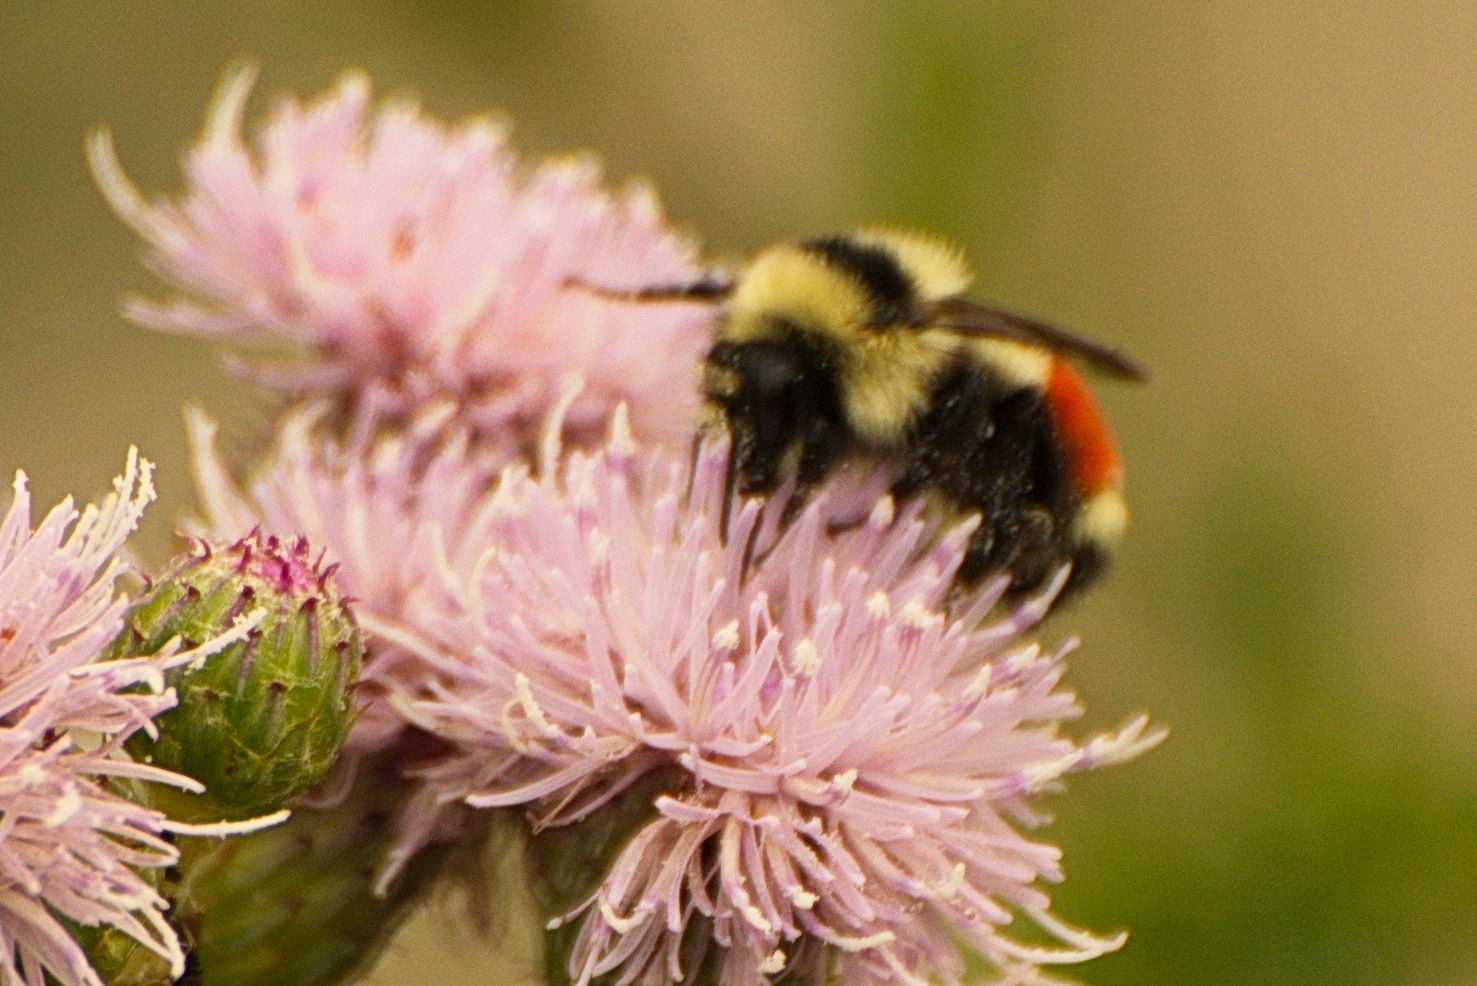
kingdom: Animalia
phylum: Arthropoda
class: Insecta
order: Hymenoptera
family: Apidae
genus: Bombus
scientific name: Bombus huntii
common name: Hunt bumble bee
